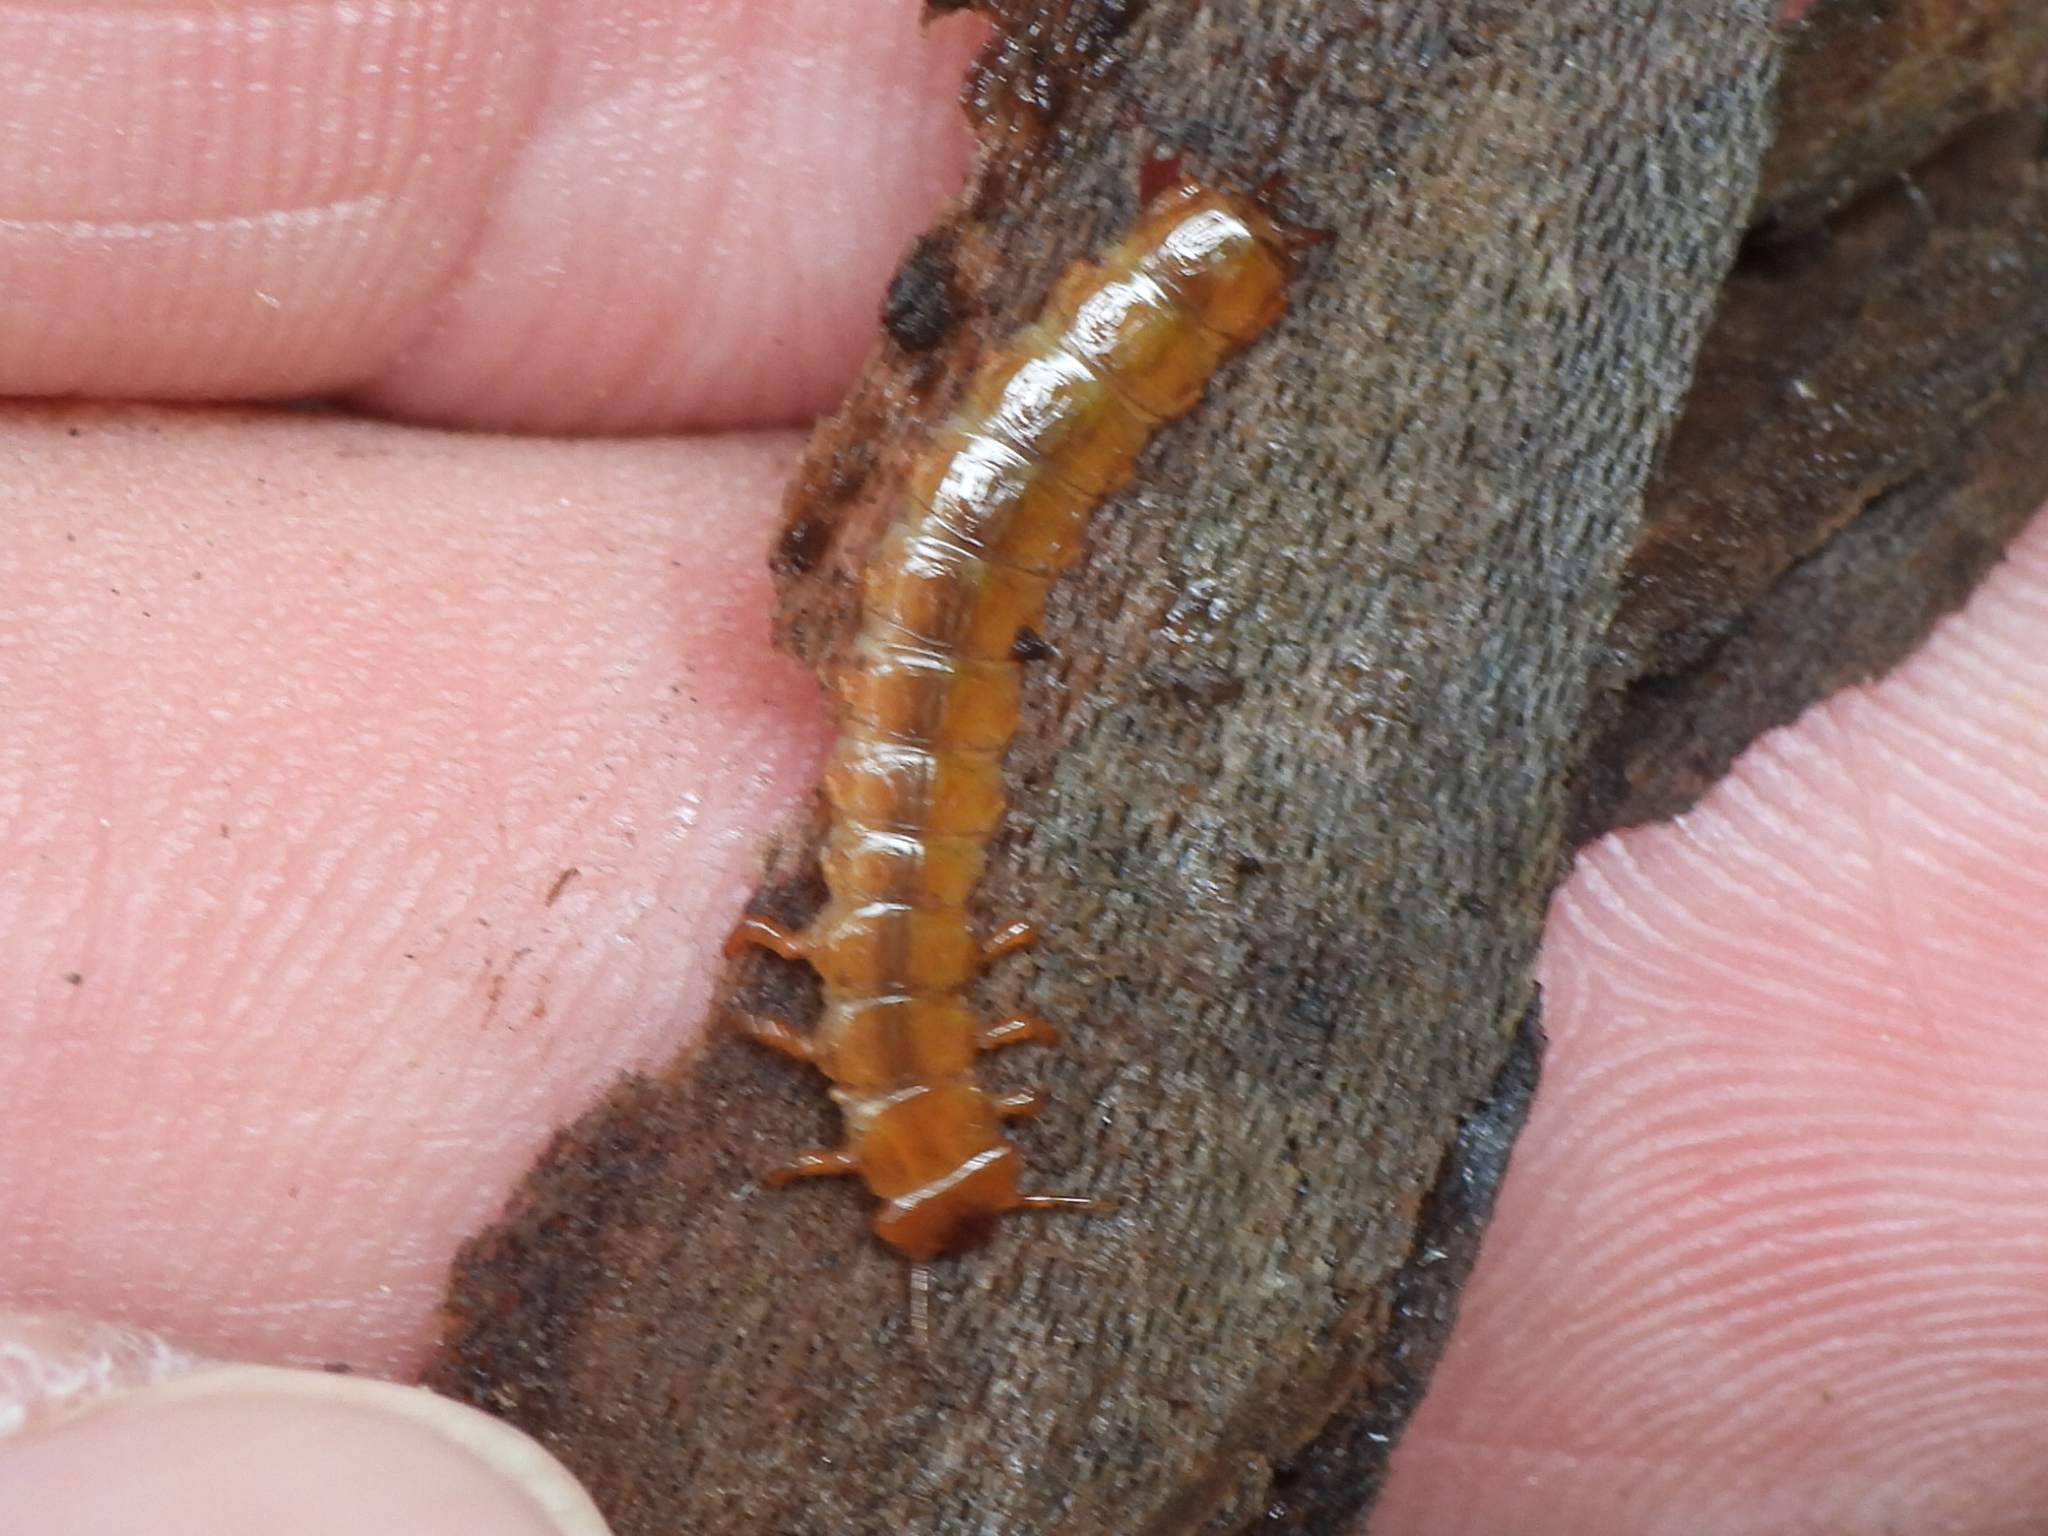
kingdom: Animalia
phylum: Arthropoda
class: Insecta
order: Coleoptera
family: Cucujidae
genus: Cucujus
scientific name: Cucujus clavipes
